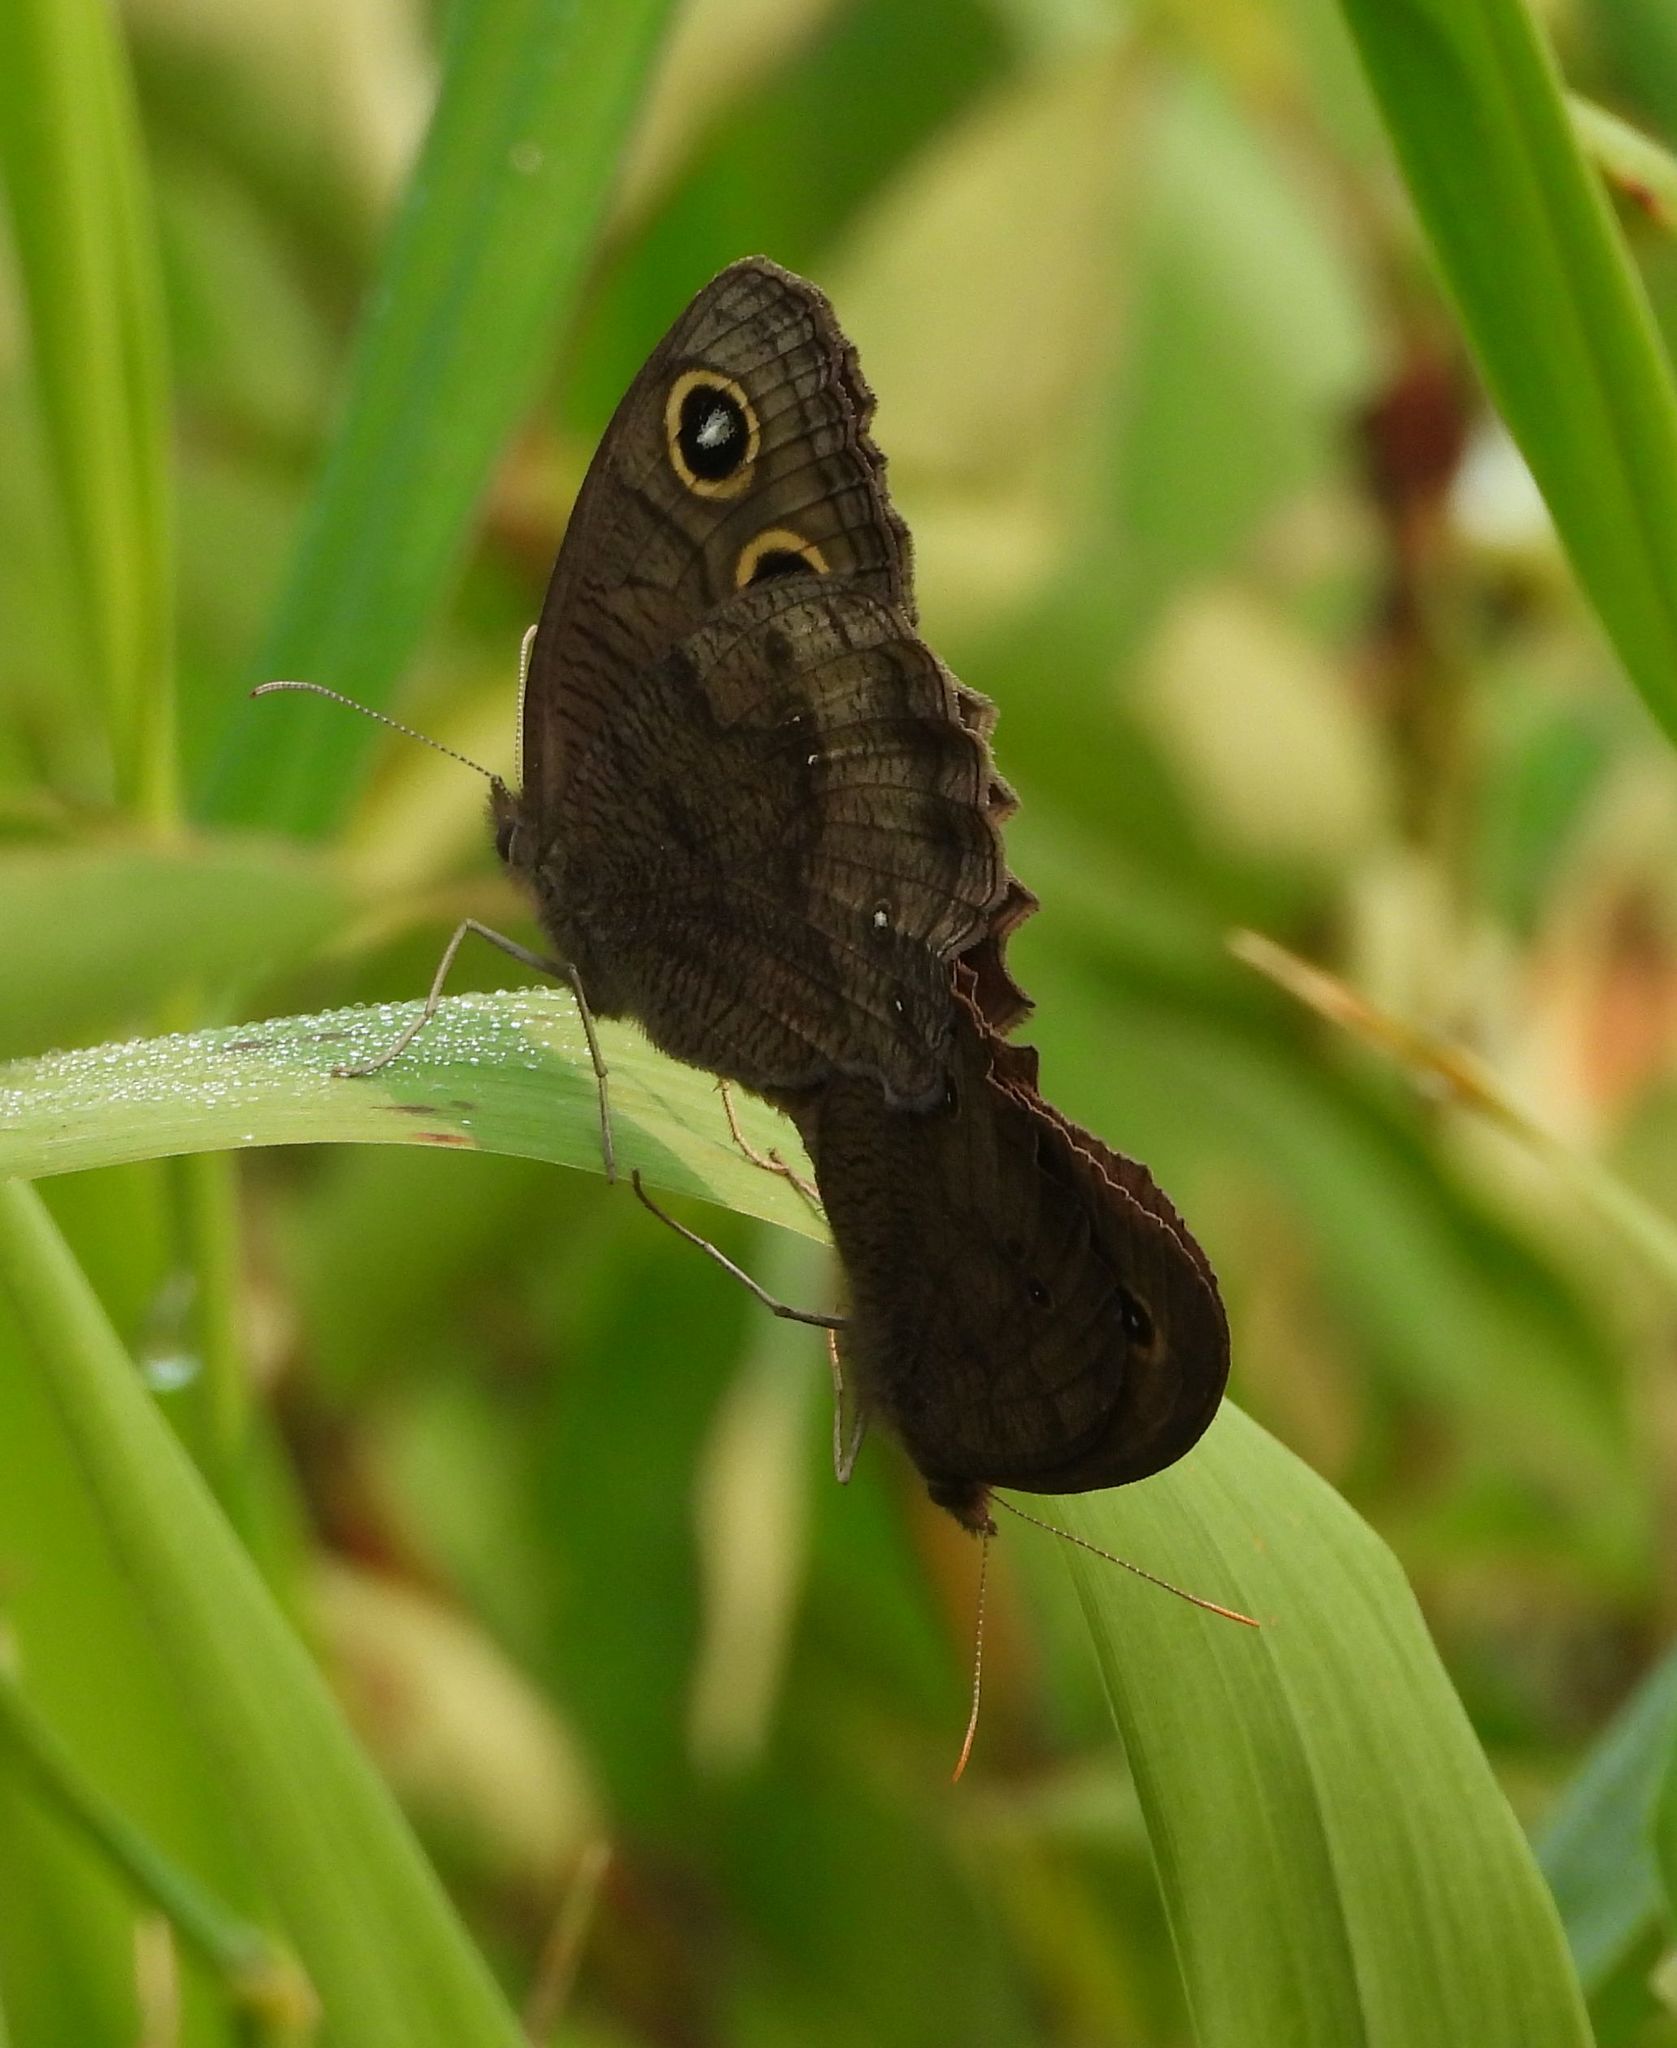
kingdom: Animalia
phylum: Arthropoda
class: Insecta
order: Lepidoptera
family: Nymphalidae
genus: Cercyonis
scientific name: Cercyonis pegala
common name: Common wood-nymph
